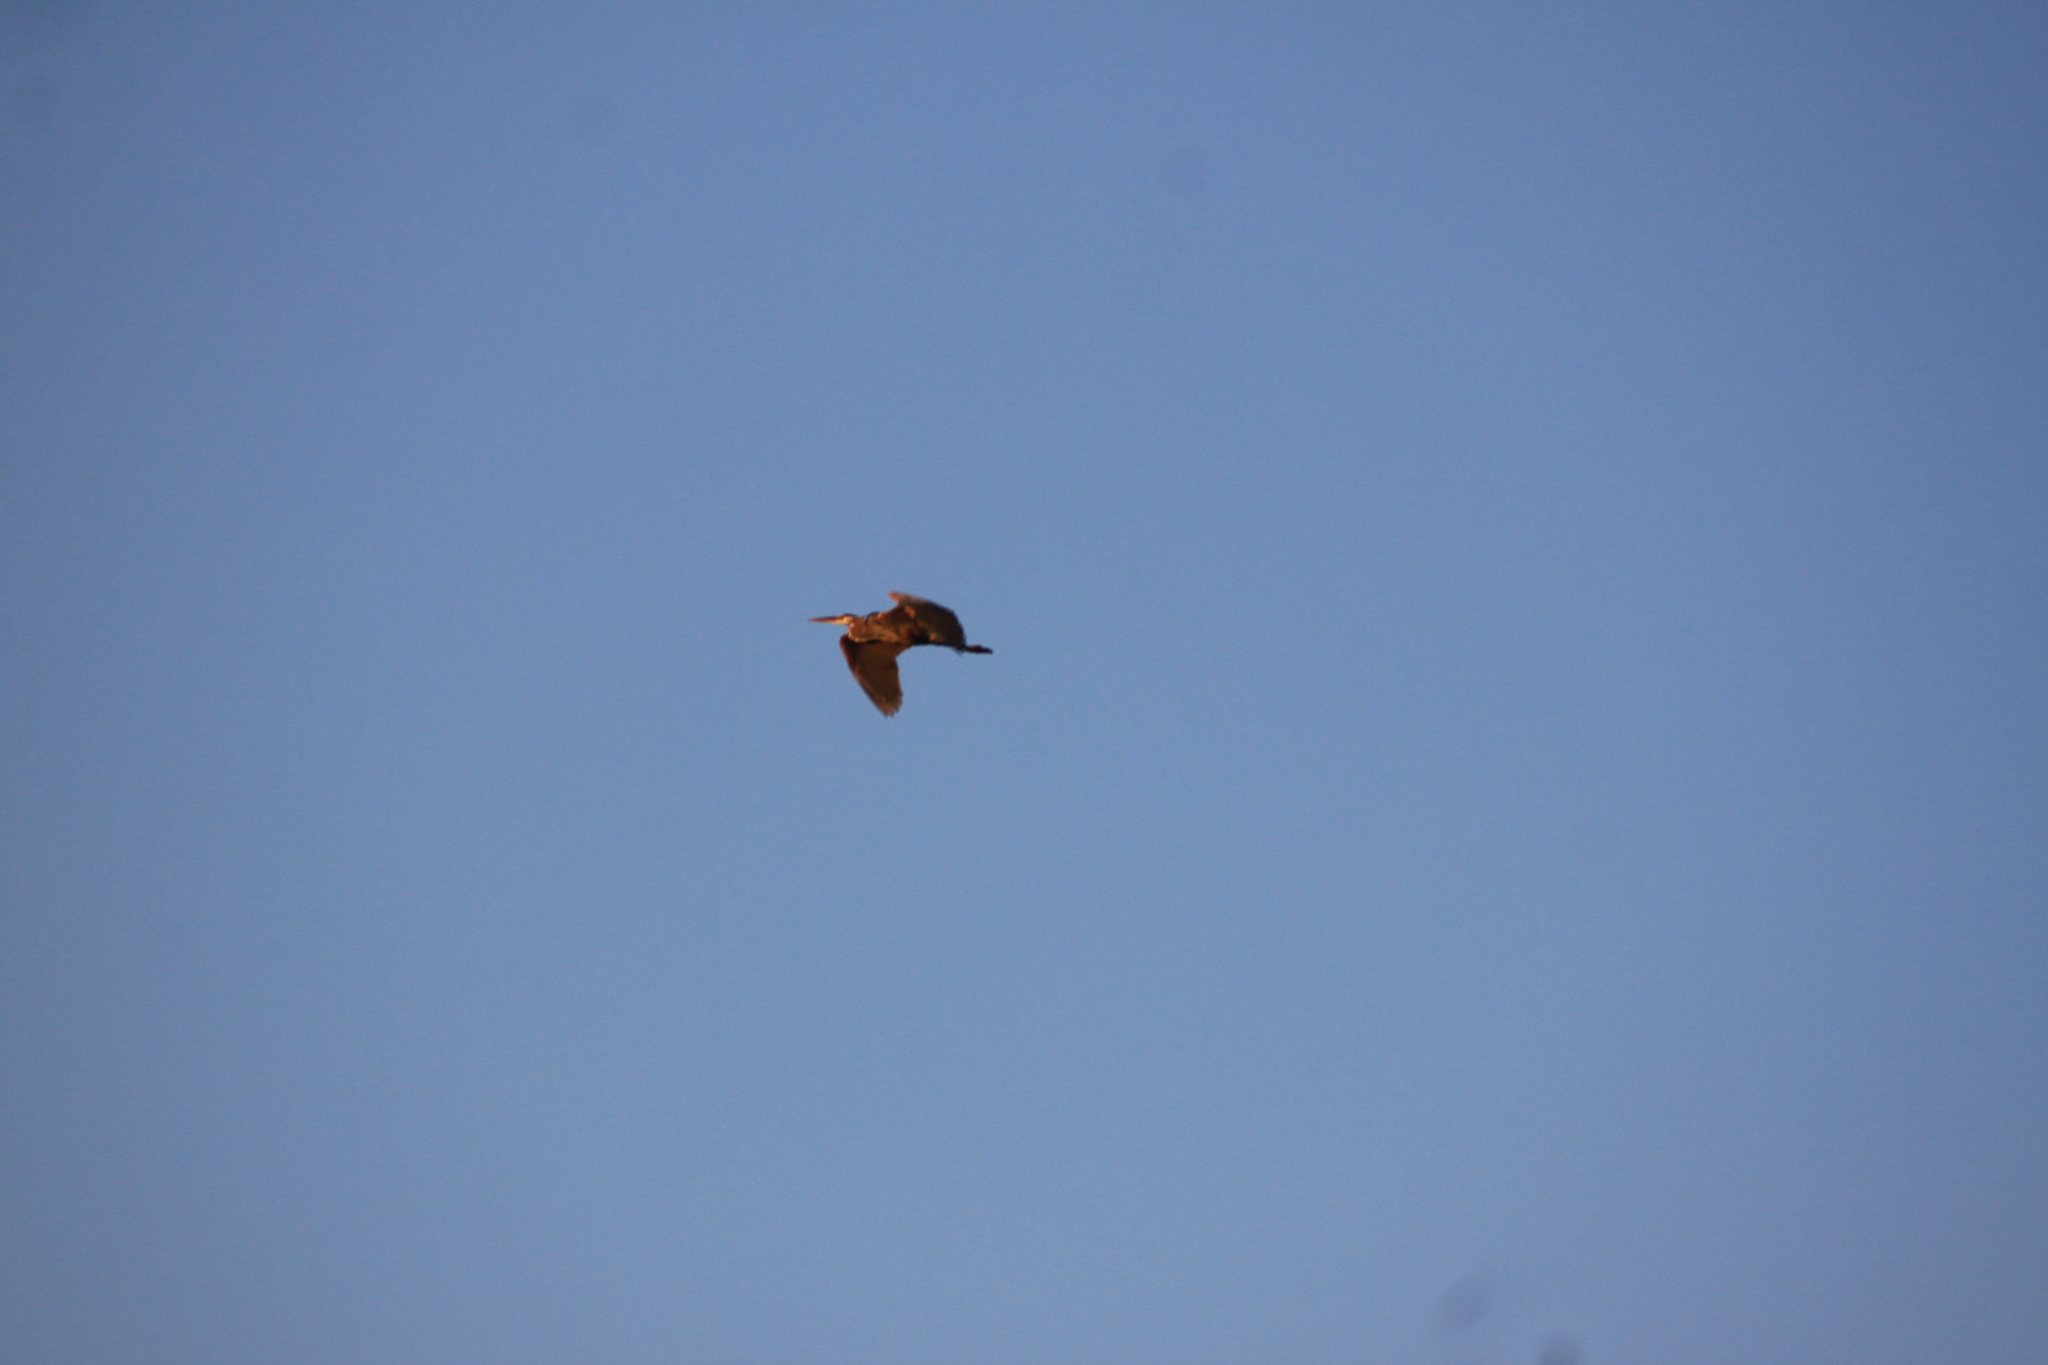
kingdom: Animalia
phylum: Chordata
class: Aves
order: Pelecaniformes
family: Ardeidae
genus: Ardea
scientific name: Ardea herodias
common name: Great blue heron
